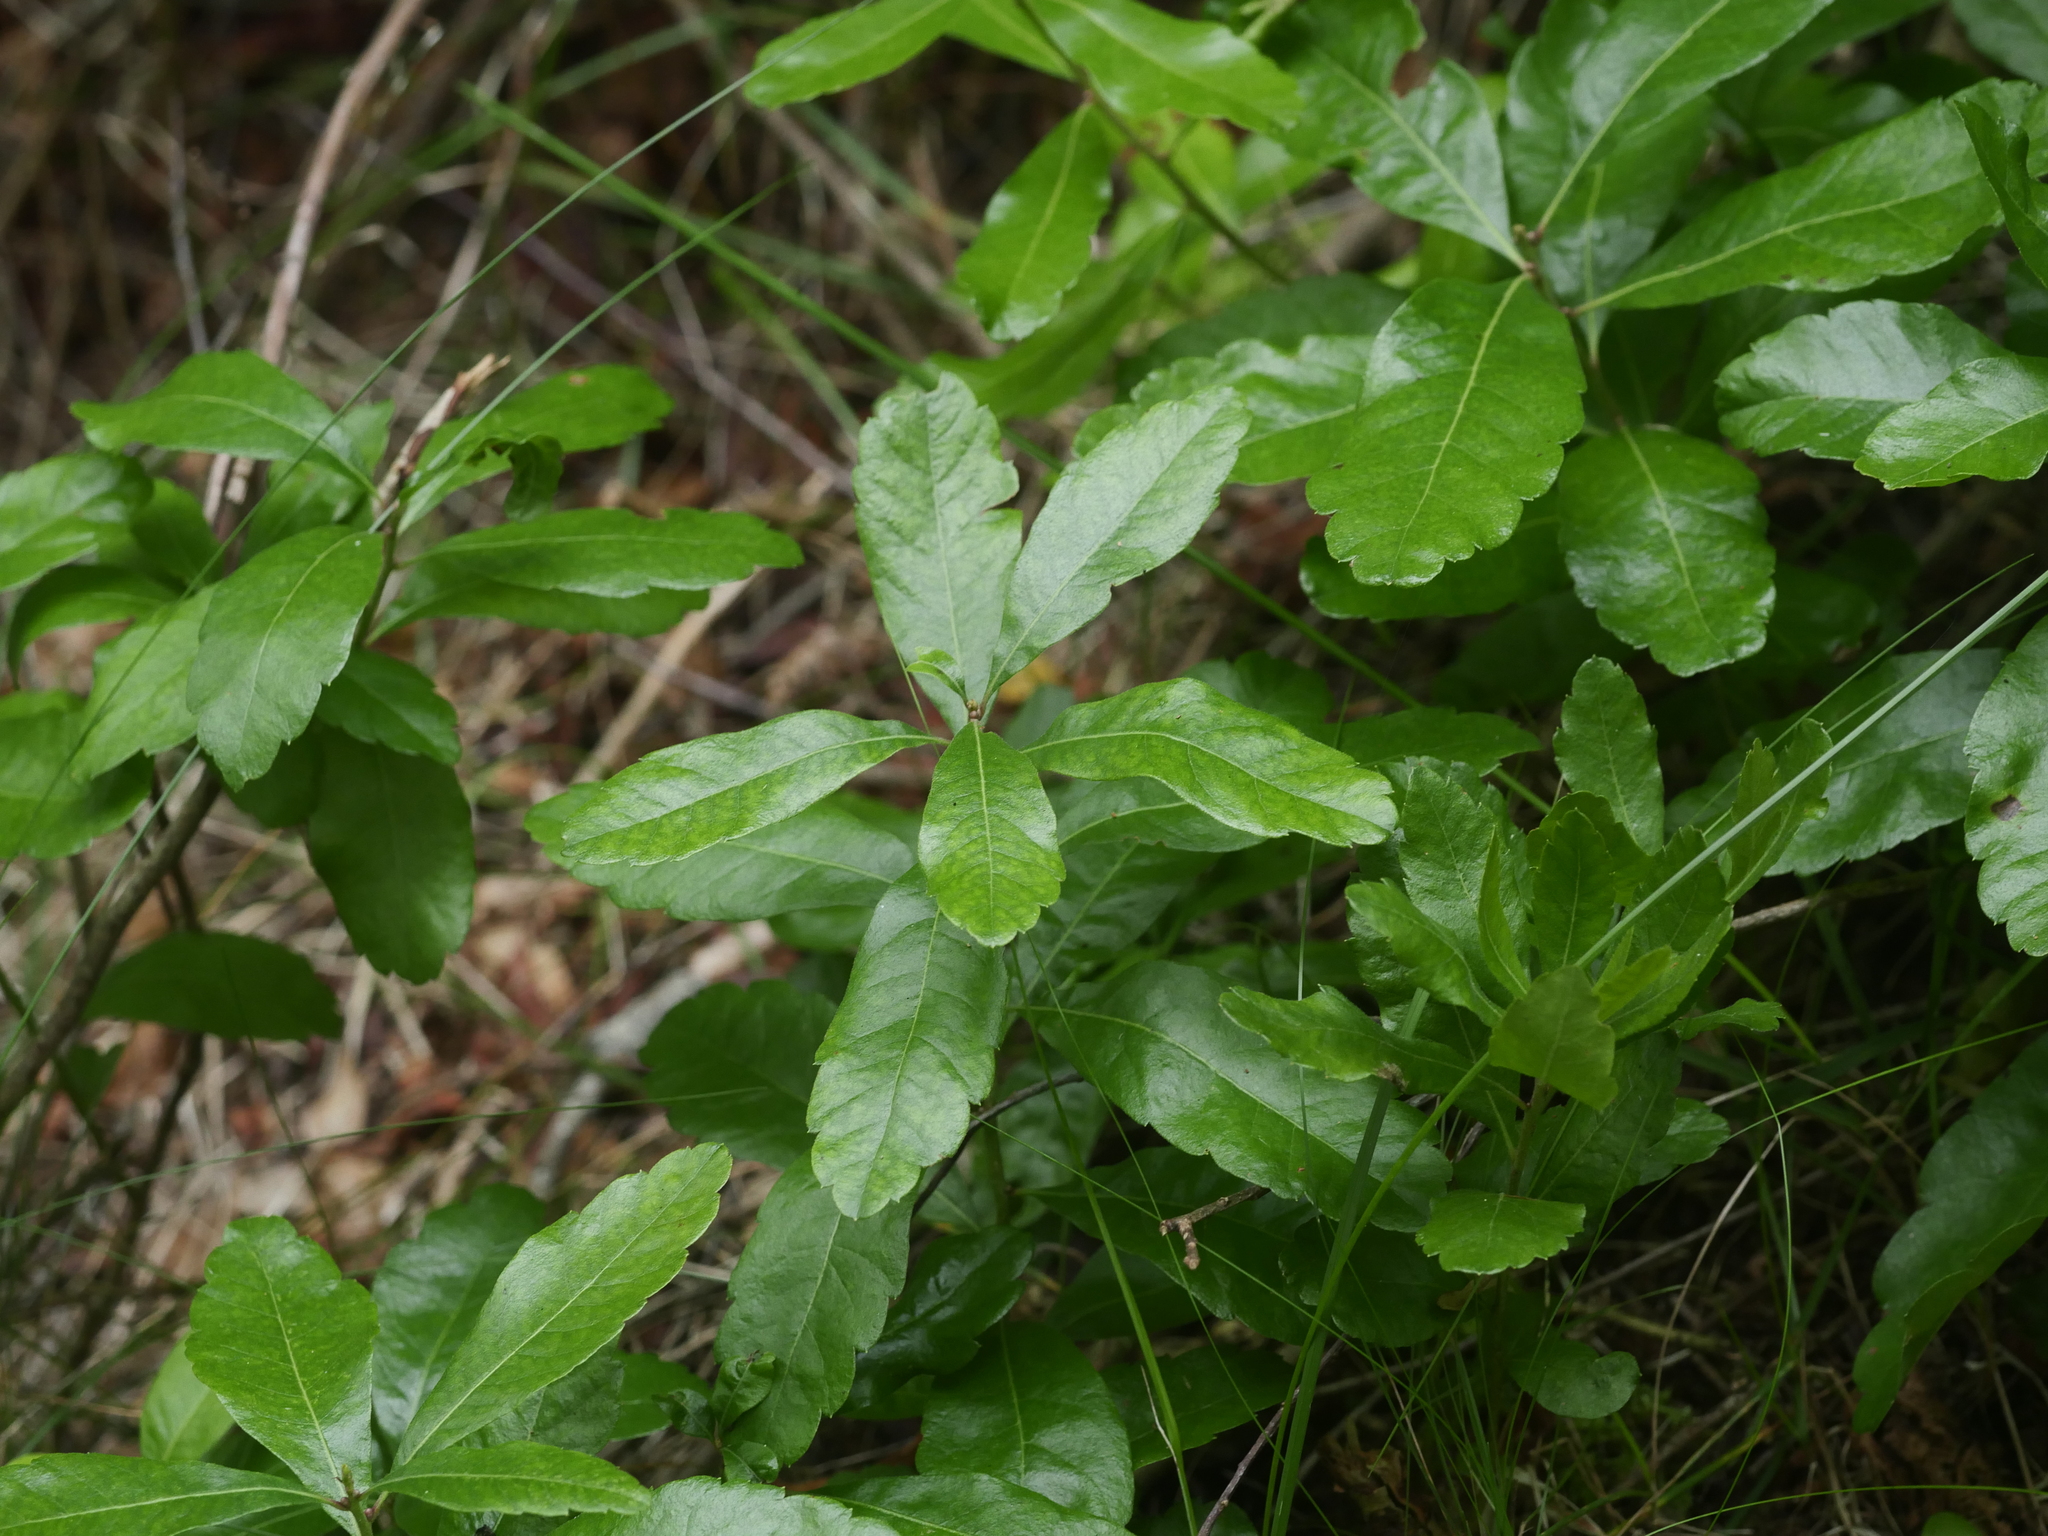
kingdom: Plantae
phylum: Tracheophyta
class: Magnoliopsida
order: Fagales
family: Myricaceae
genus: Morella
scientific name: Morella pensylvanica
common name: Northern bayberry
